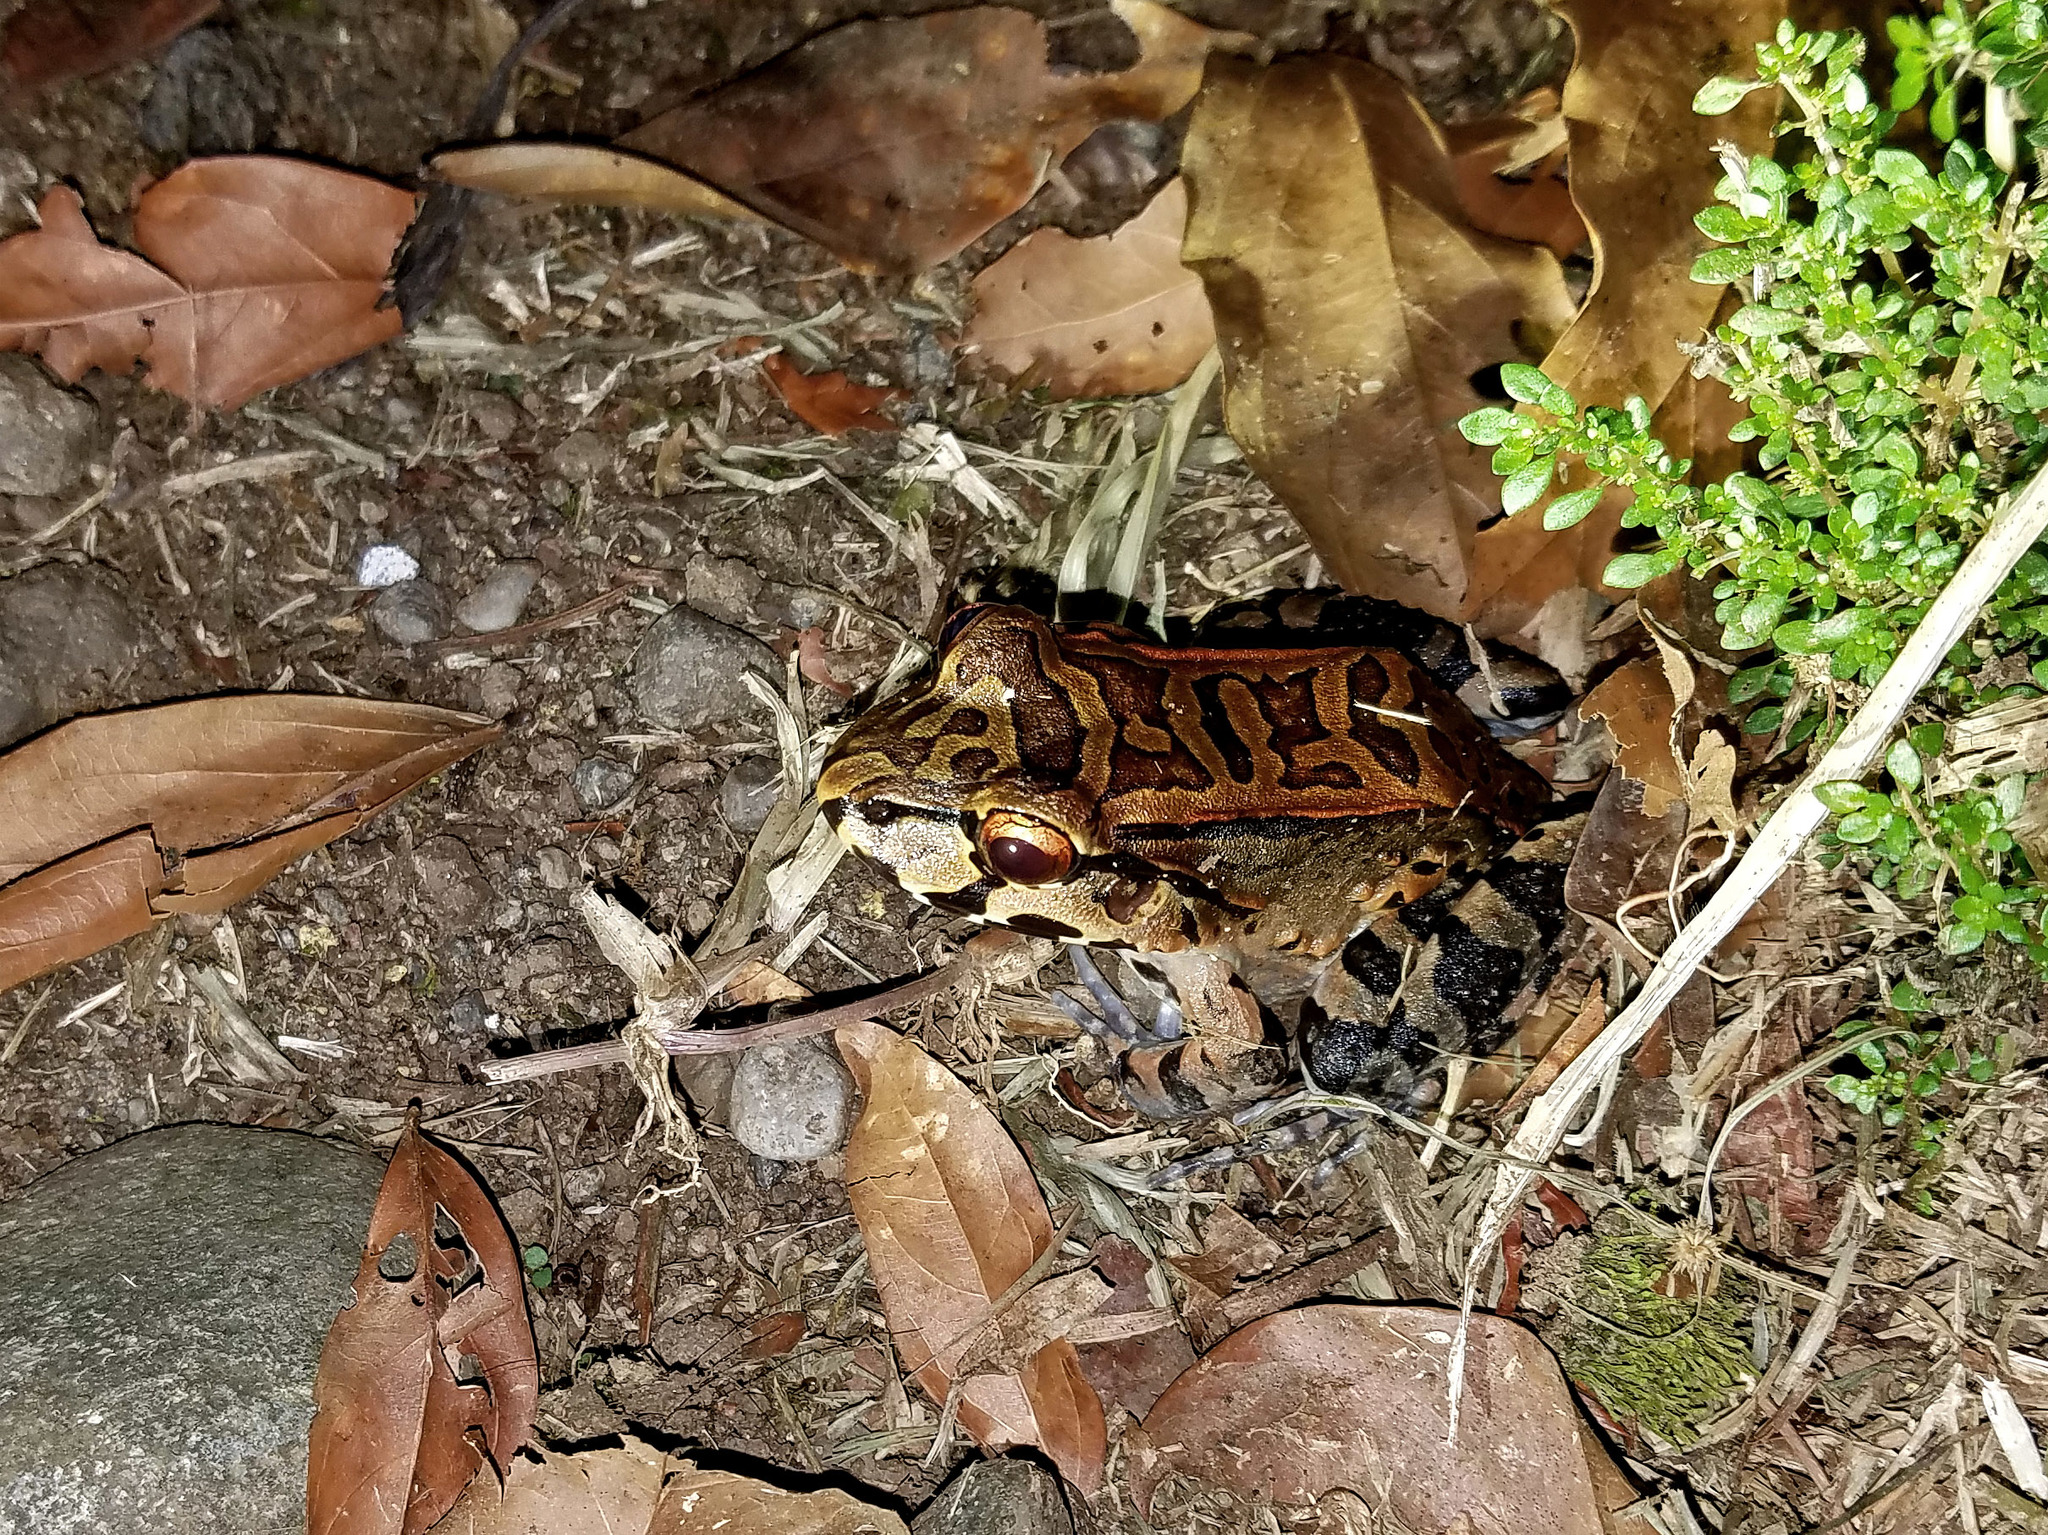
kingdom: Animalia
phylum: Chordata
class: Amphibia
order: Anura
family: Leptodactylidae
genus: Leptodactylus
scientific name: Leptodactylus savagei
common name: Savage's thin-toed frog
